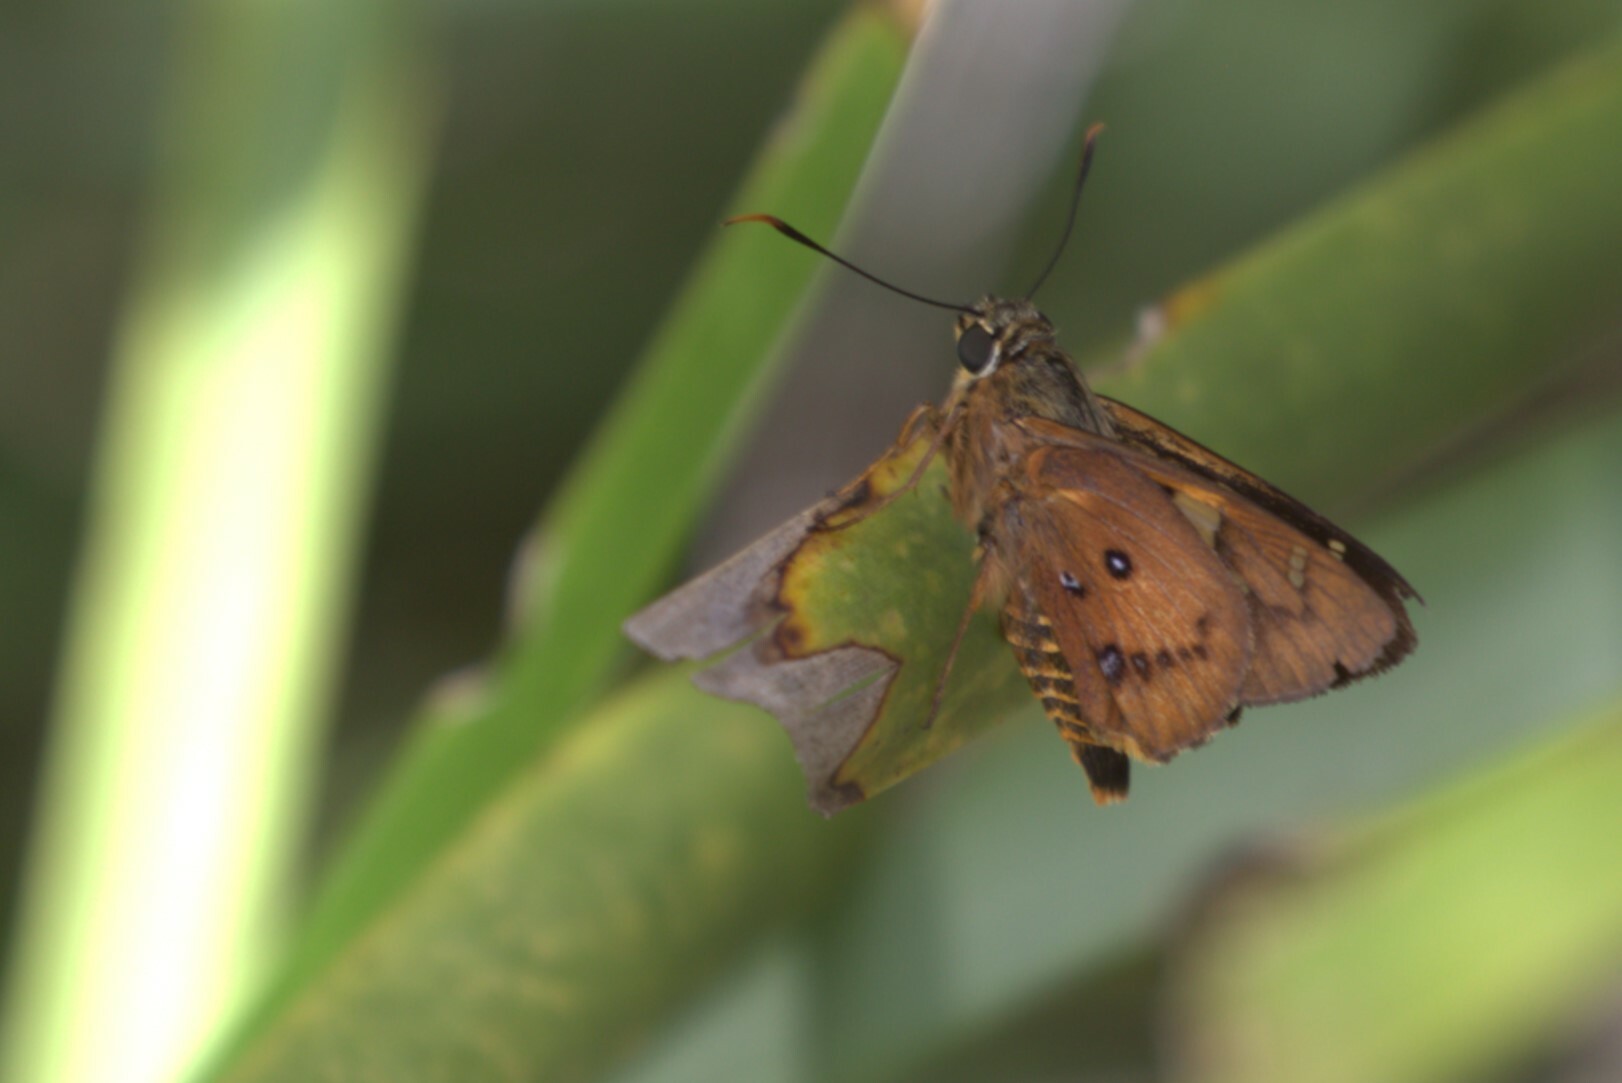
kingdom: Animalia
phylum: Arthropoda
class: Insecta
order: Lepidoptera
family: Hesperiidae
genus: Trapezites
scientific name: Trapezites symmomus
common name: Splendid ochre
